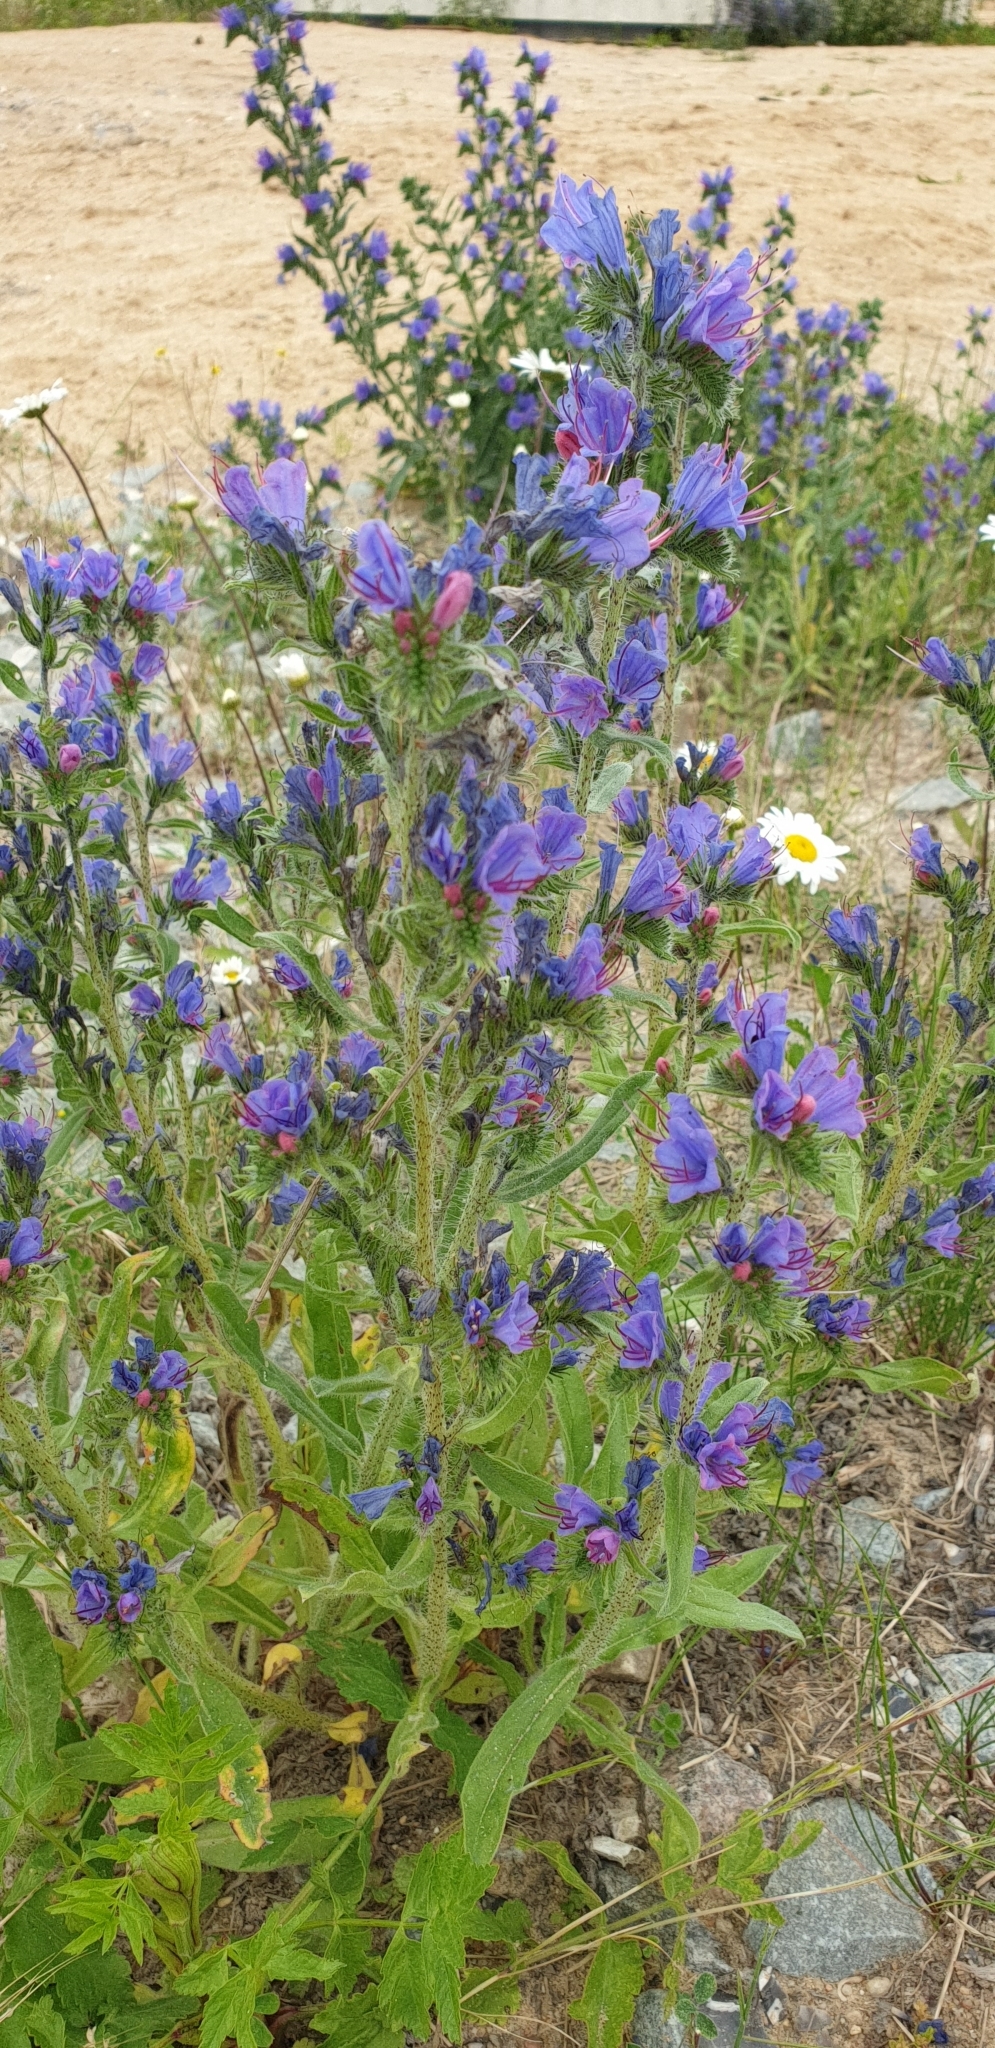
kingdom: Plantae
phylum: Tracheophyta
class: Magnoliopsida
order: Boraginales
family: Boraginaceae
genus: Echium
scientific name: Echium vulgare
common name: Common viper's bugloss
